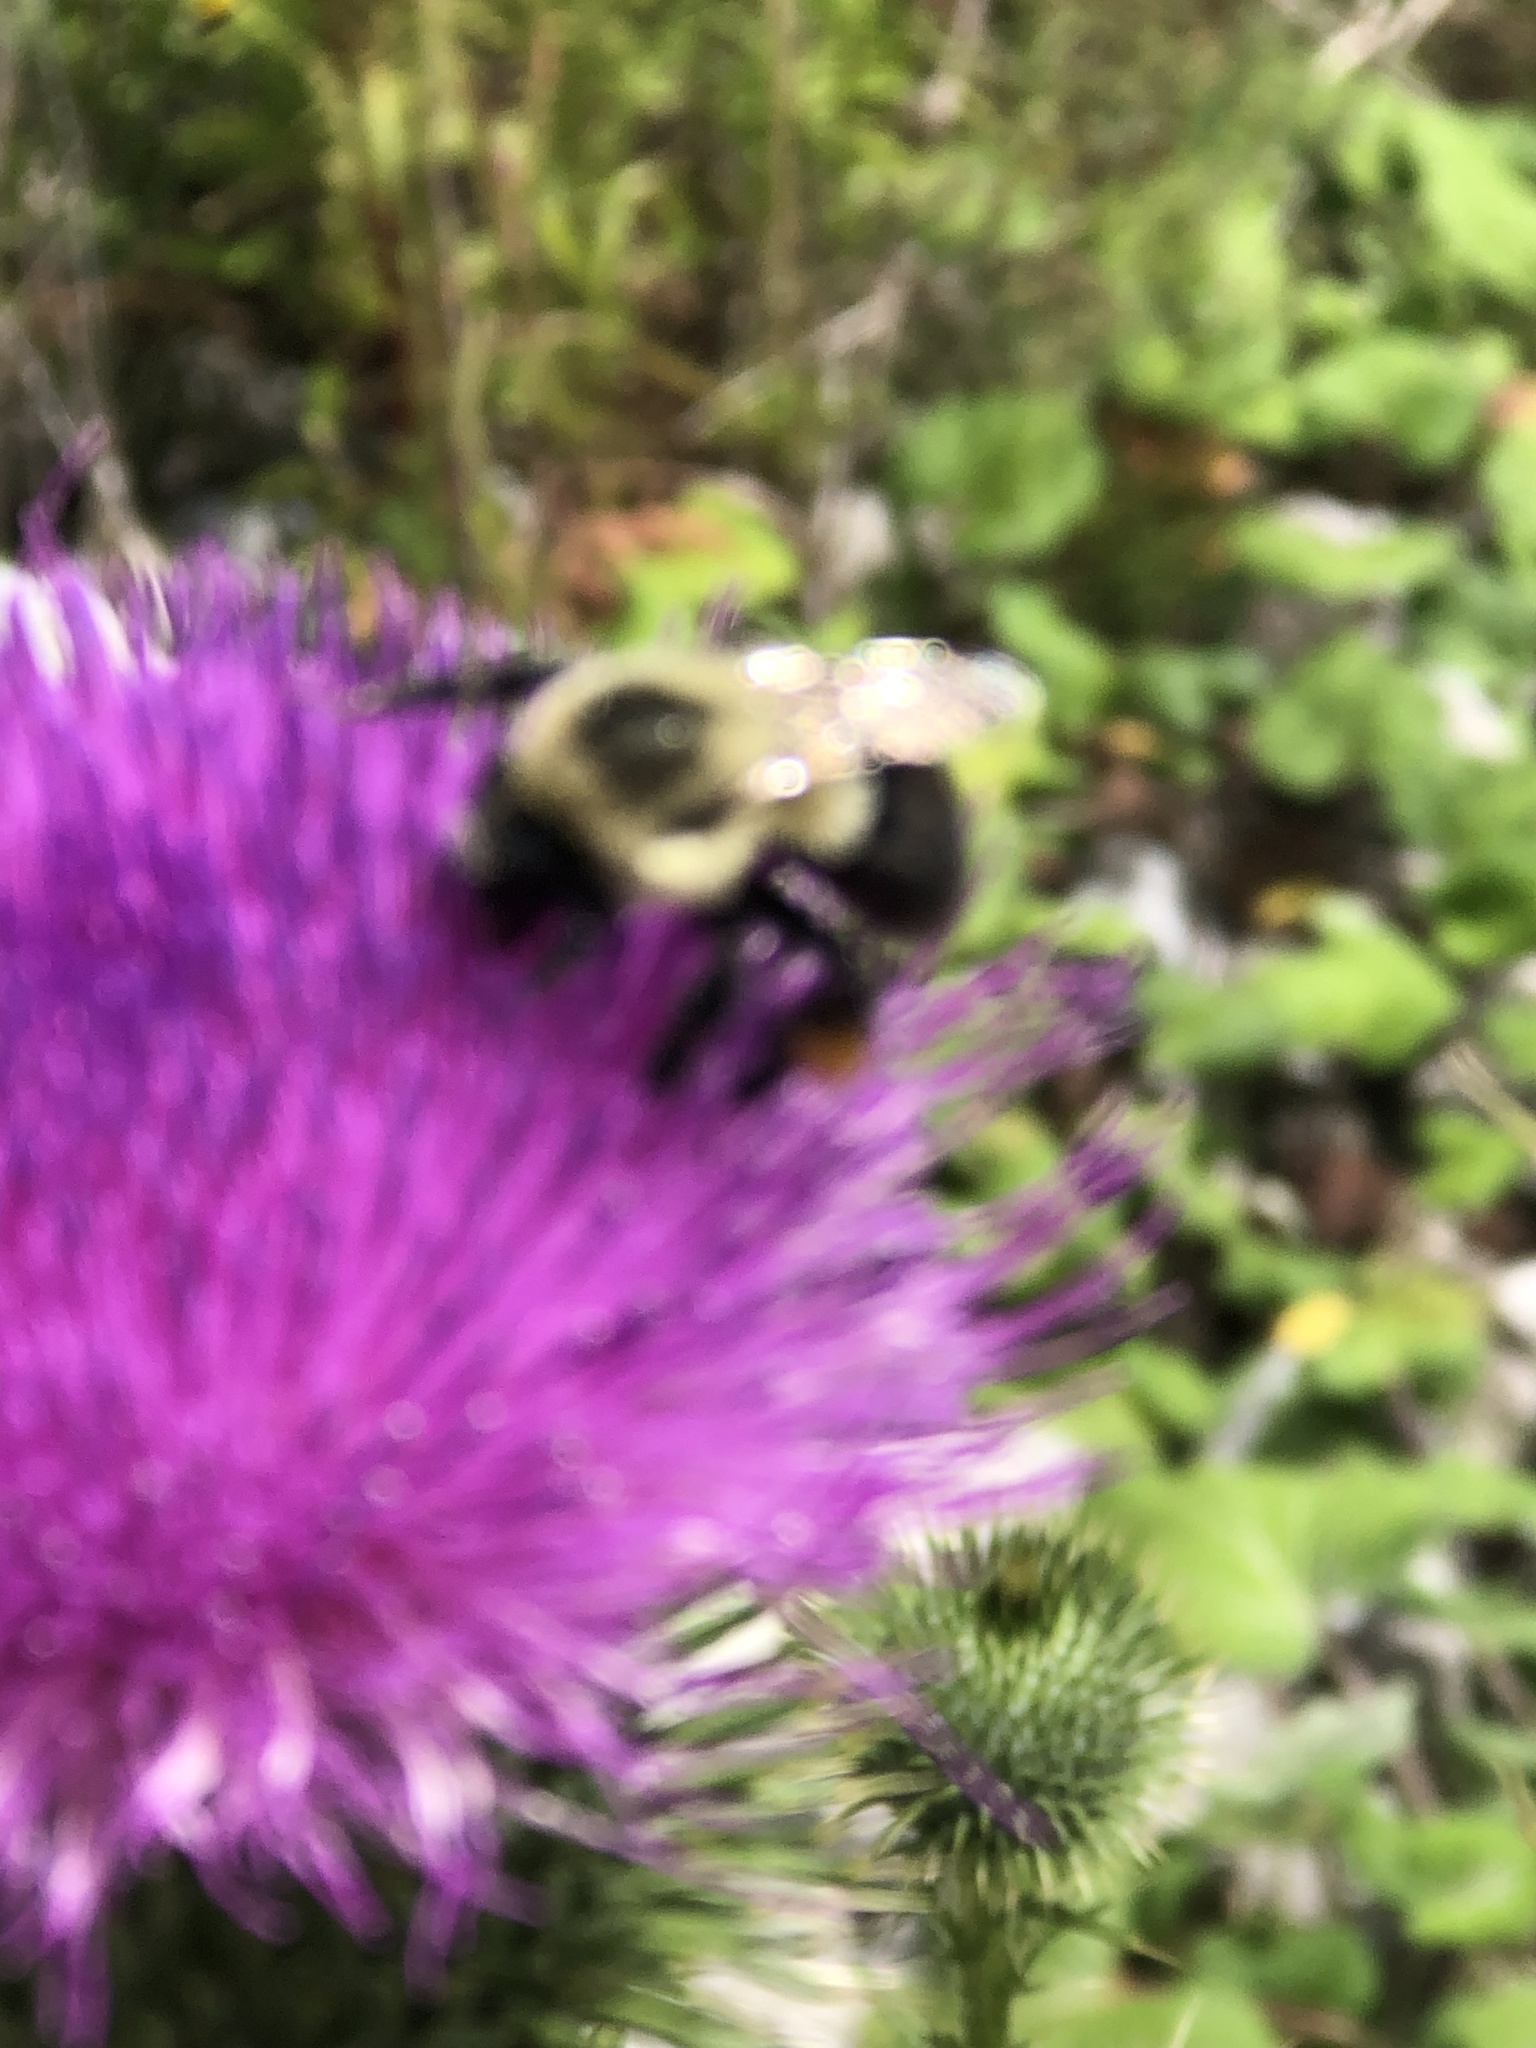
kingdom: Animalia
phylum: Arthropoda
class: Insecta
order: Hymenoptera
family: Apidae
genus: Bombus
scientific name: Bombus impatiens
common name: Common eastern bumble bee
